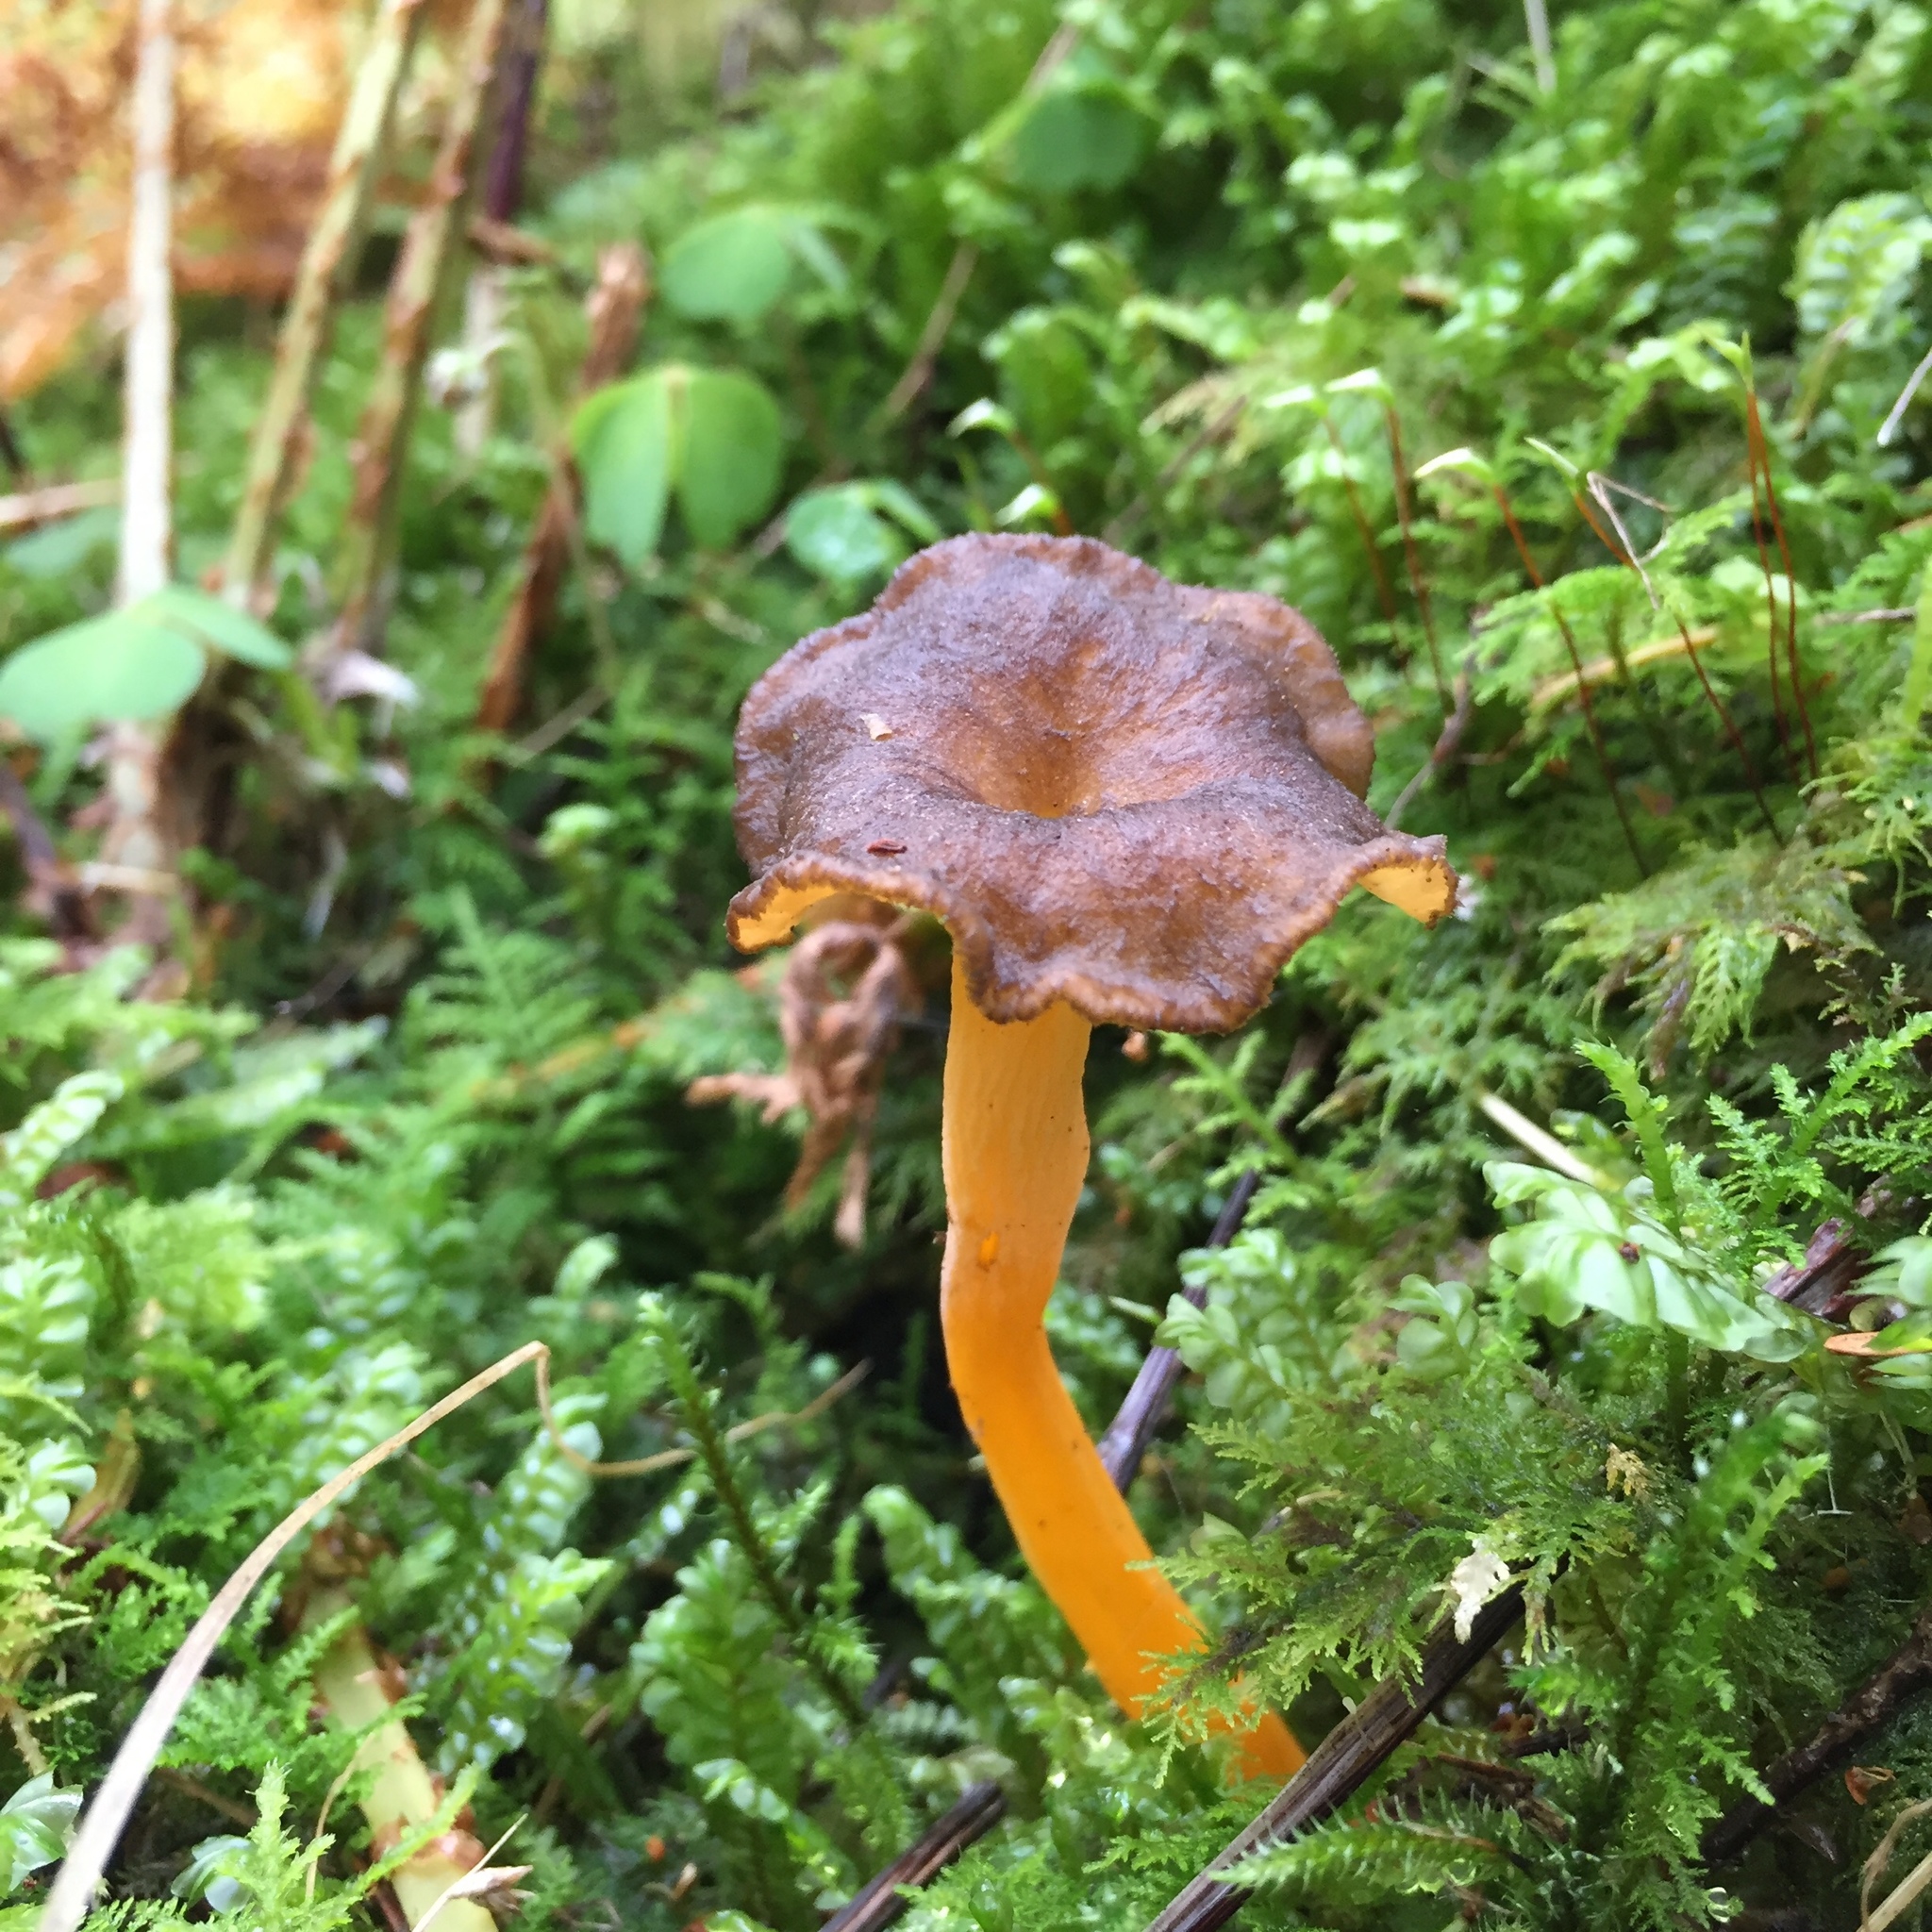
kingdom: Fungi
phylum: Basidiomycota
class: Agaricomycetes
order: Cantharellales
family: Hydnaceae
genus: Craterellus
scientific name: Craterellus lutescens
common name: Golden chanterelle
